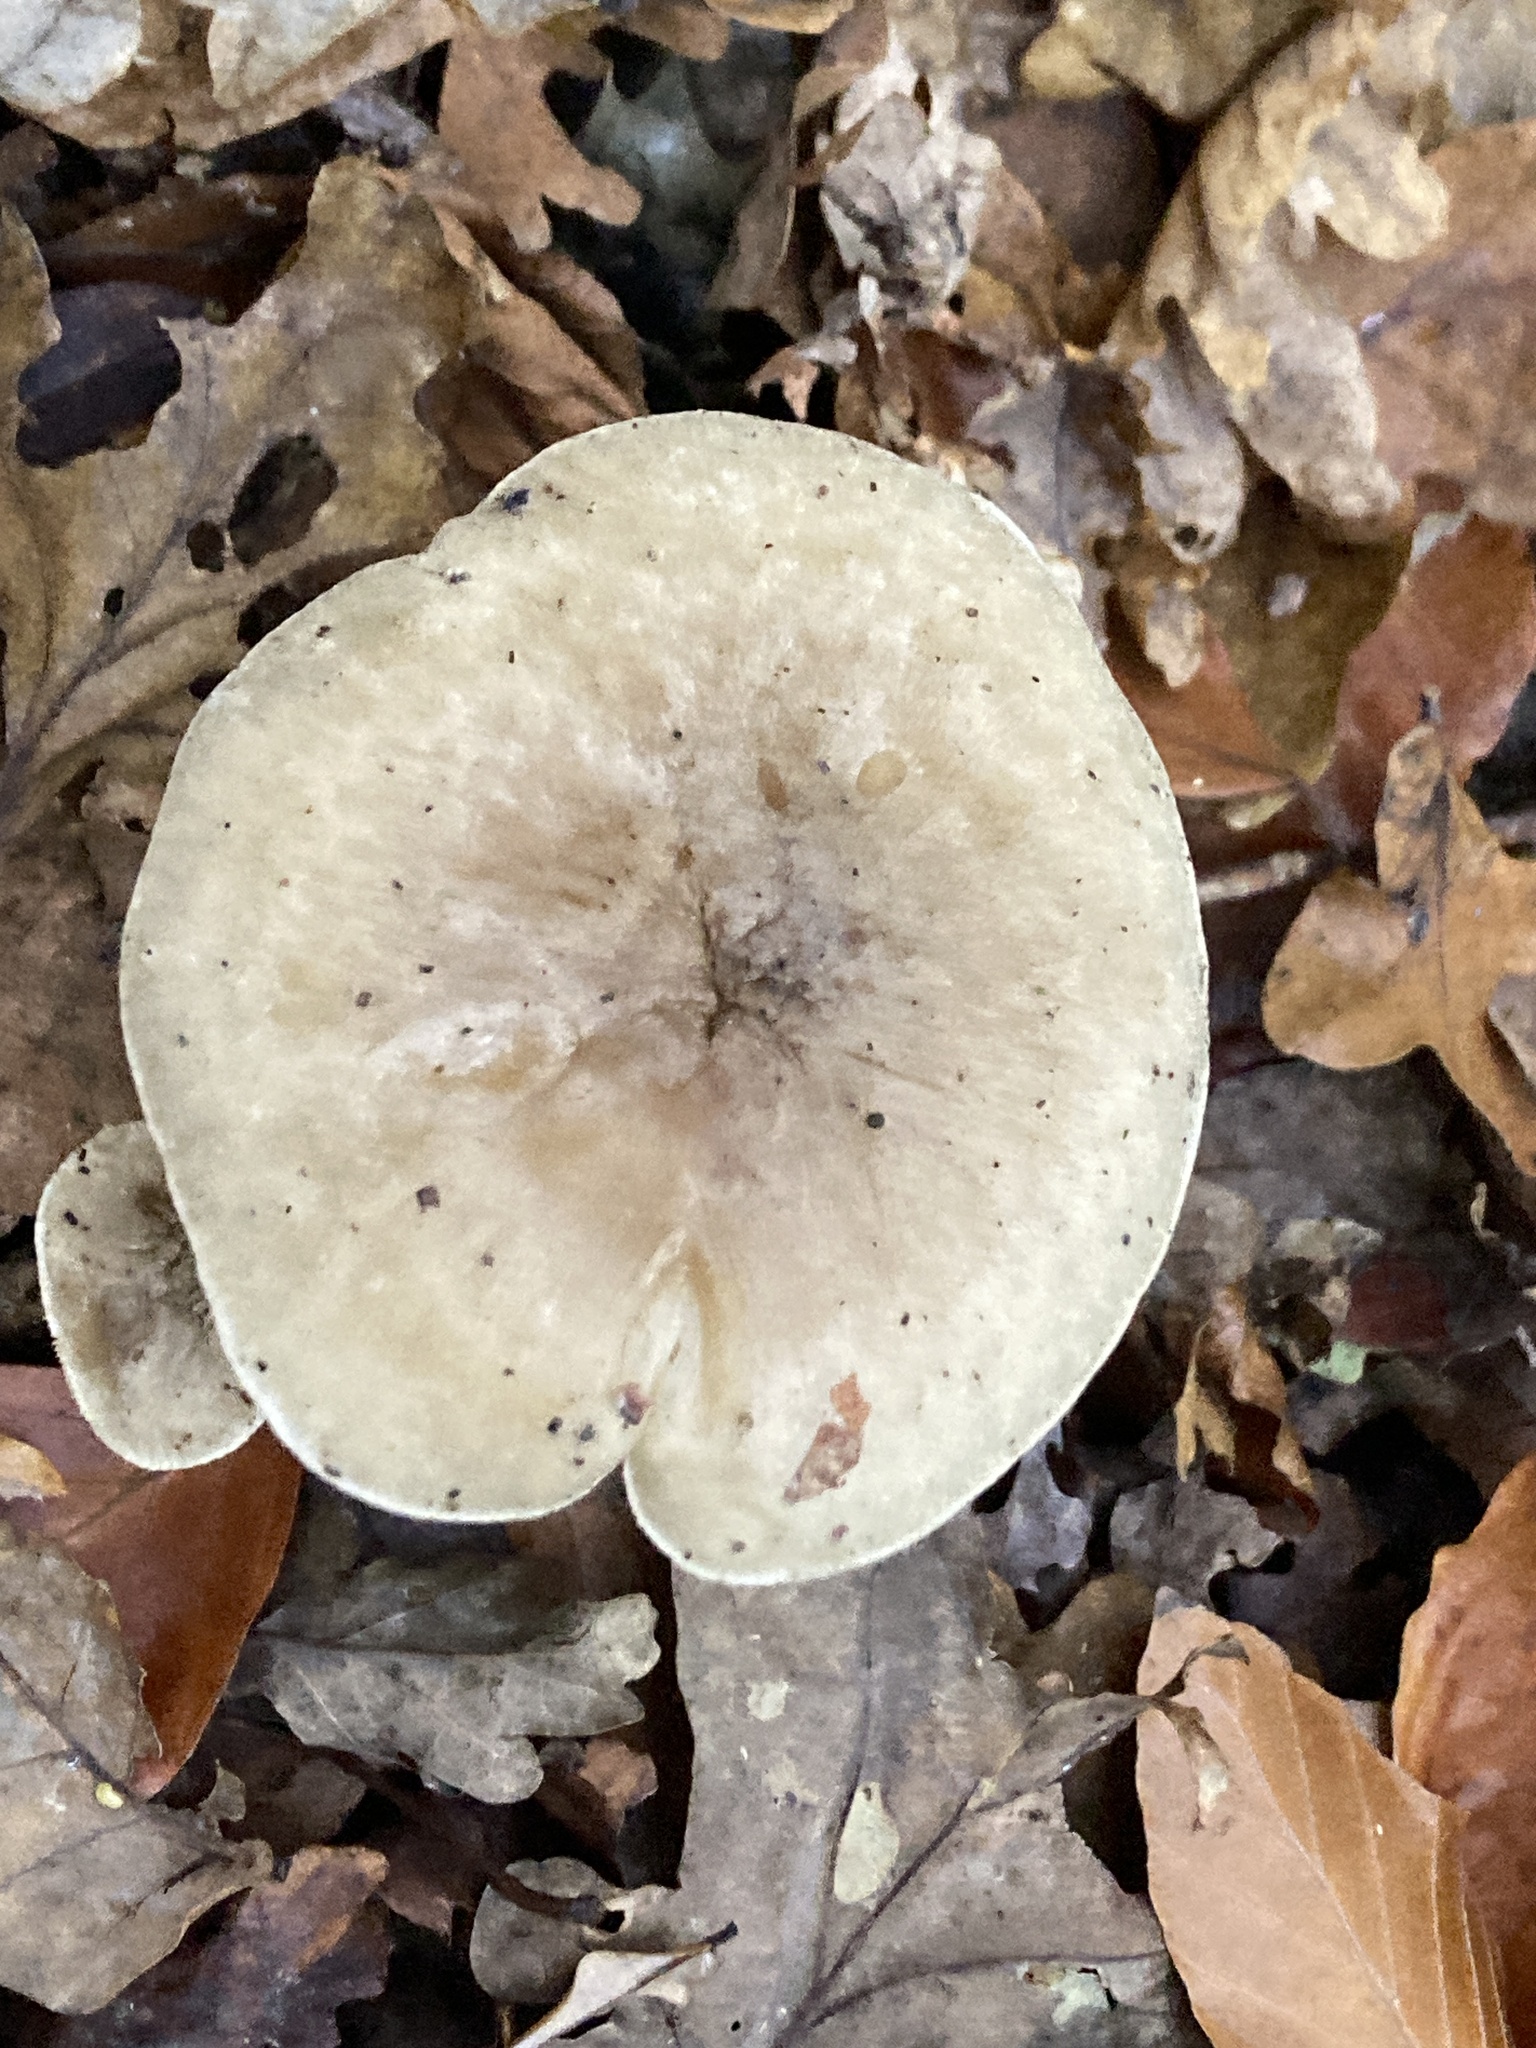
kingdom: Fungi
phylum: Basidiomycota
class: Agaricomycetes
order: Agaricales
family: Tricholomataceae
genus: Clitocybe
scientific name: Clitocybe nebularis
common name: Clouded agaric
